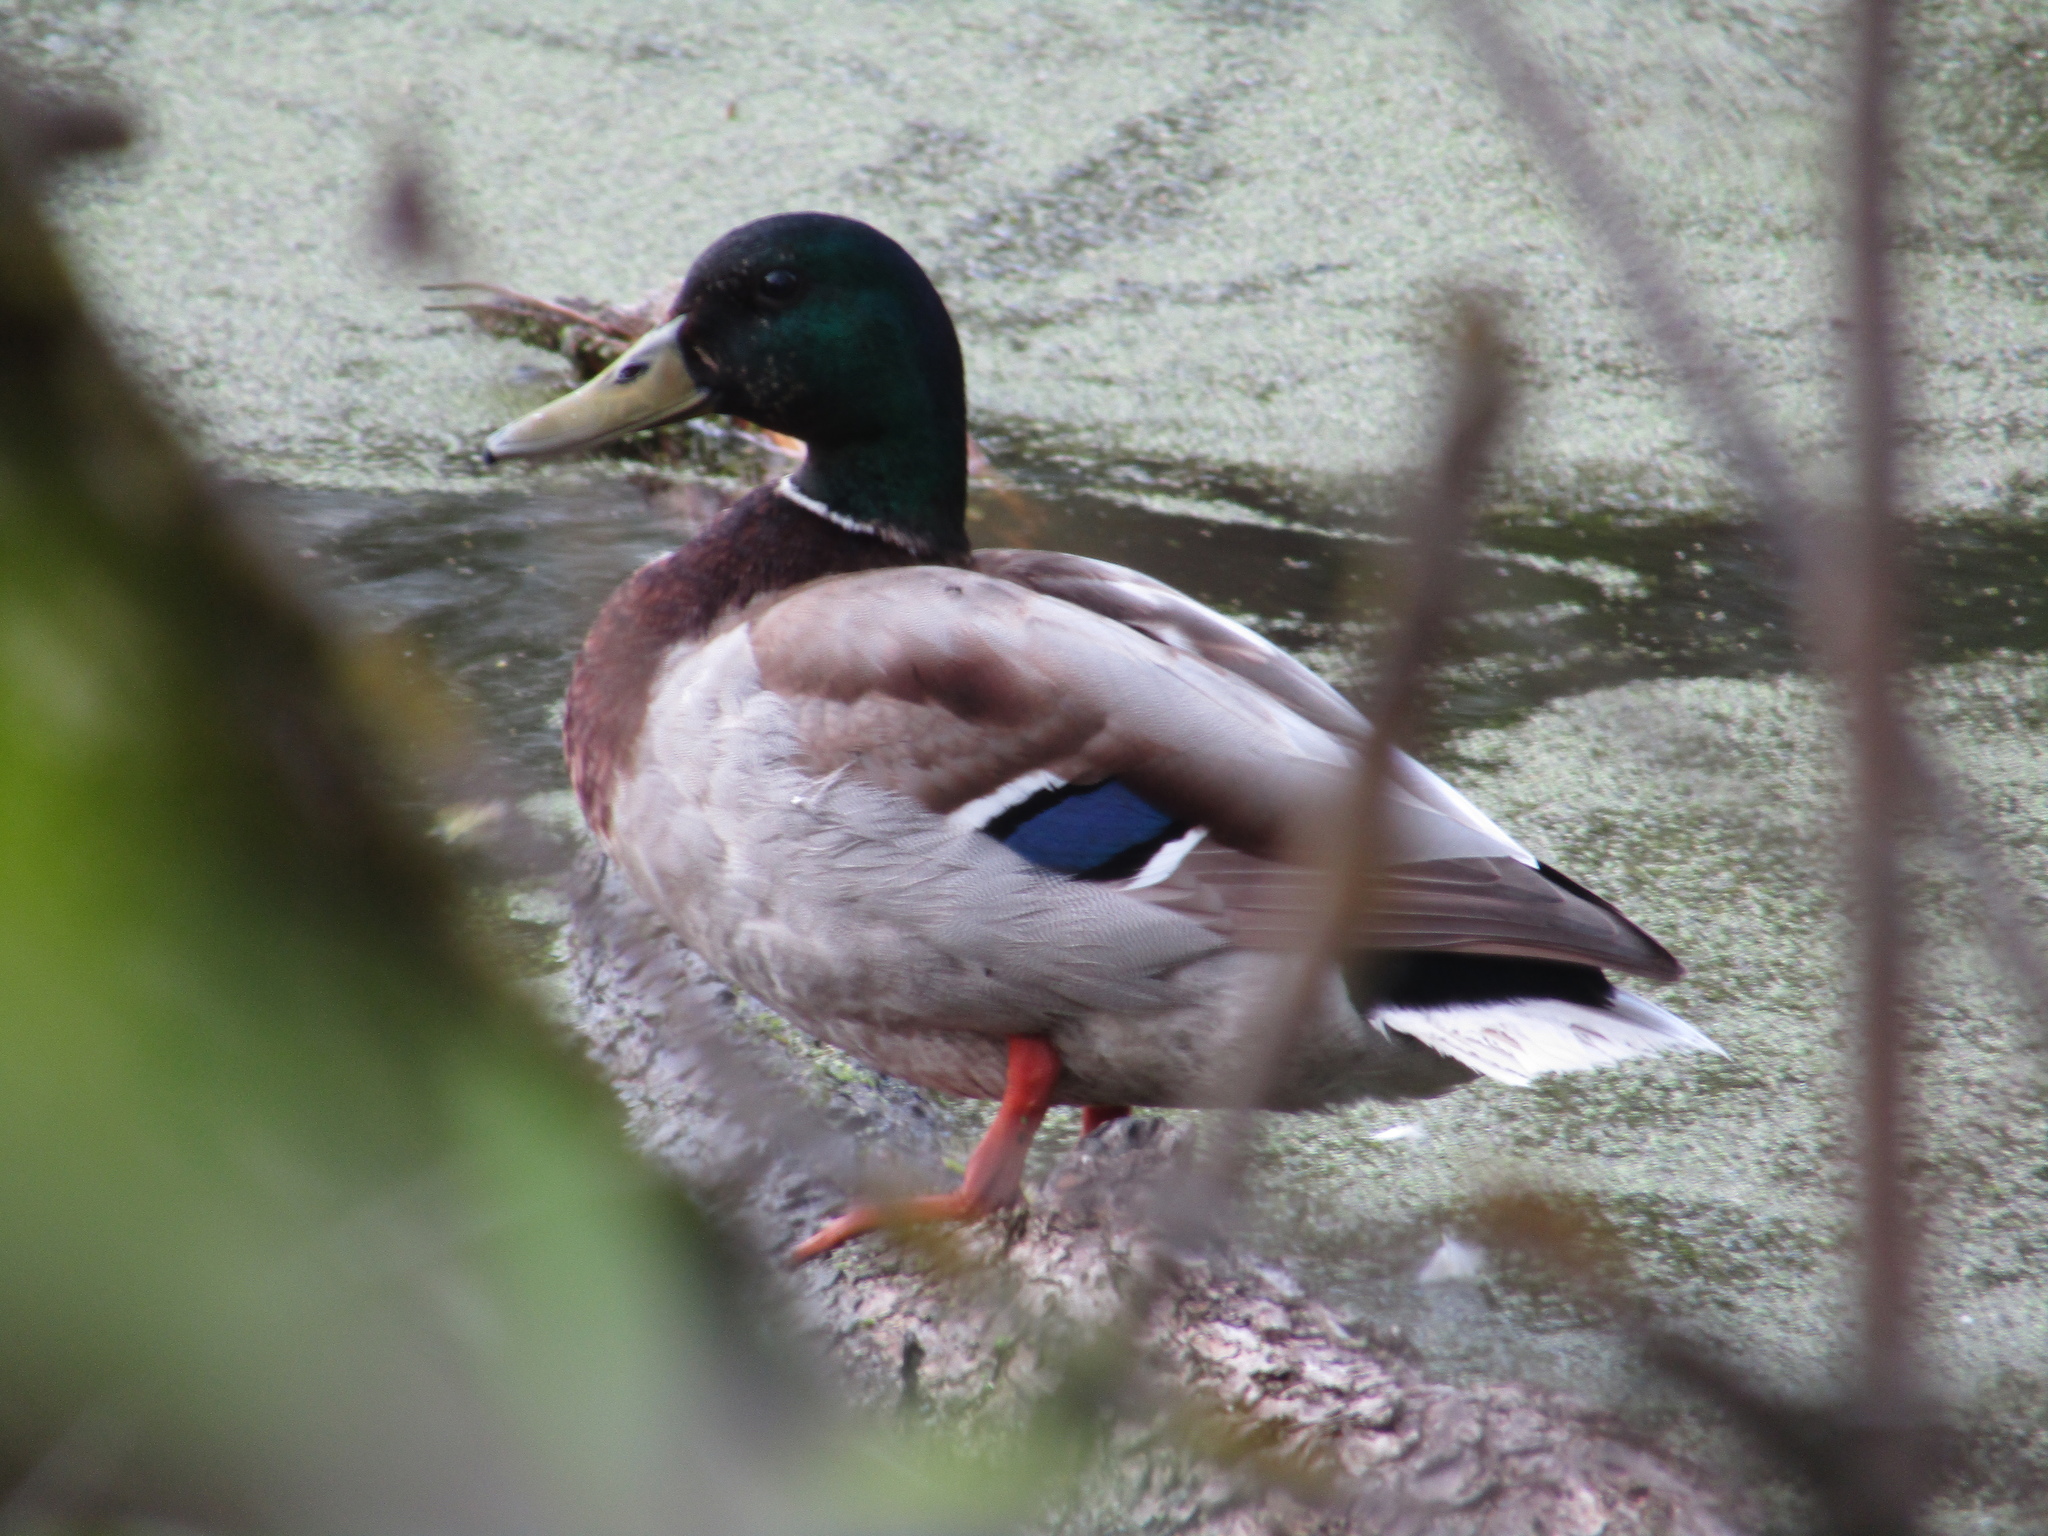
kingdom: Animalia
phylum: Chordata
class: Aves
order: Anseriformes
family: Anatidae
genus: Anas
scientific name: Anas platyrhynchos
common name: Mallard
